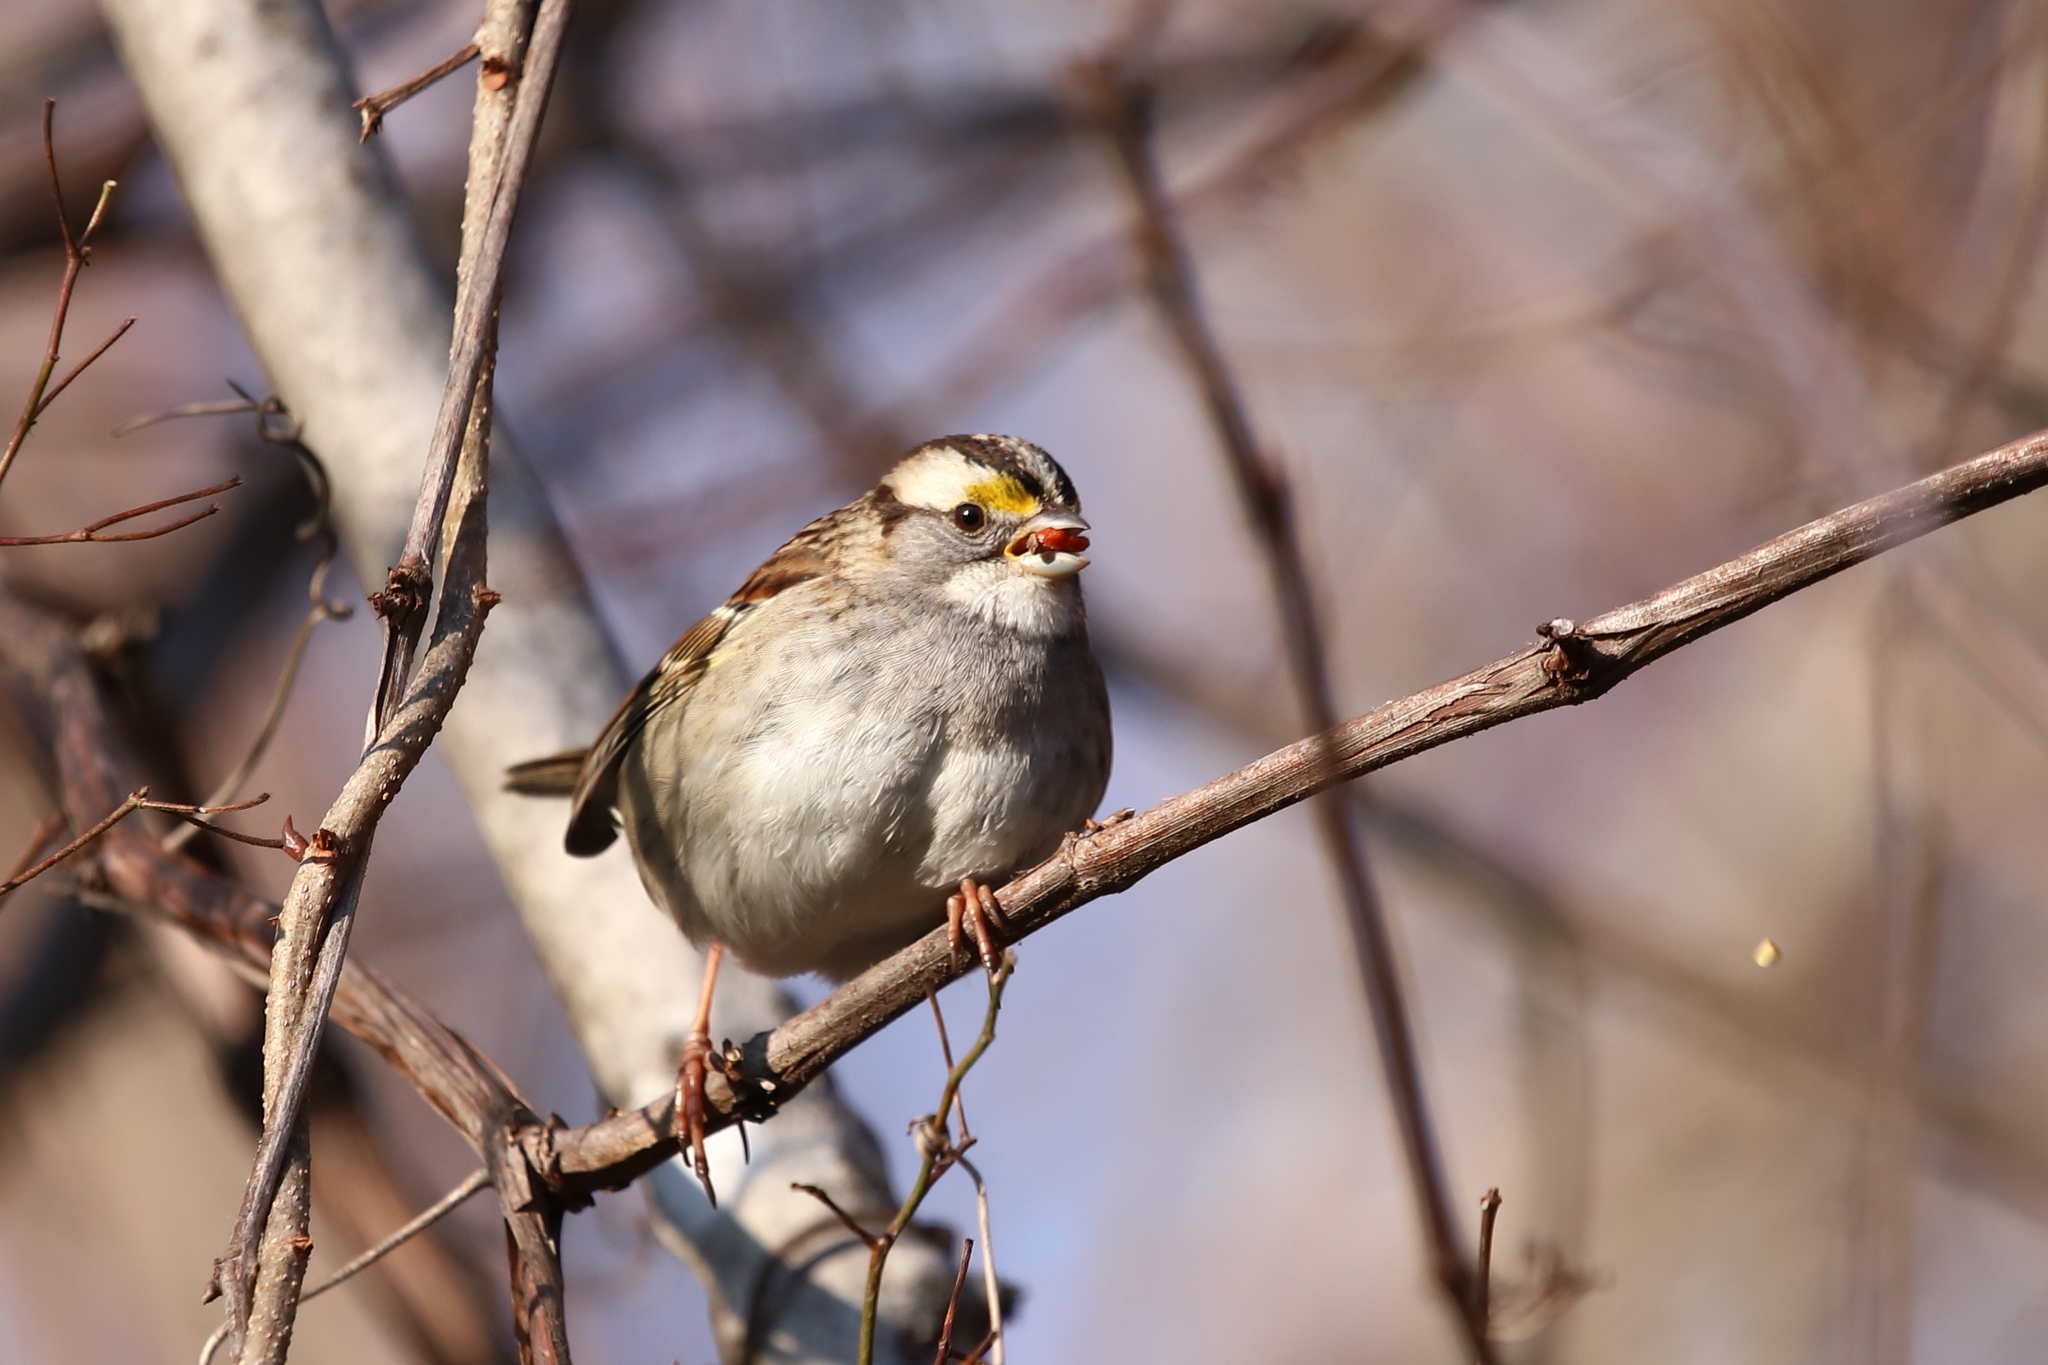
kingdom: Animalia
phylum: Chordata
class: Aves
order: Passeriformes
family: Passerellidae
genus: Zonotrichia
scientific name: Zonotrichia albicollis
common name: White-throated sparrow
